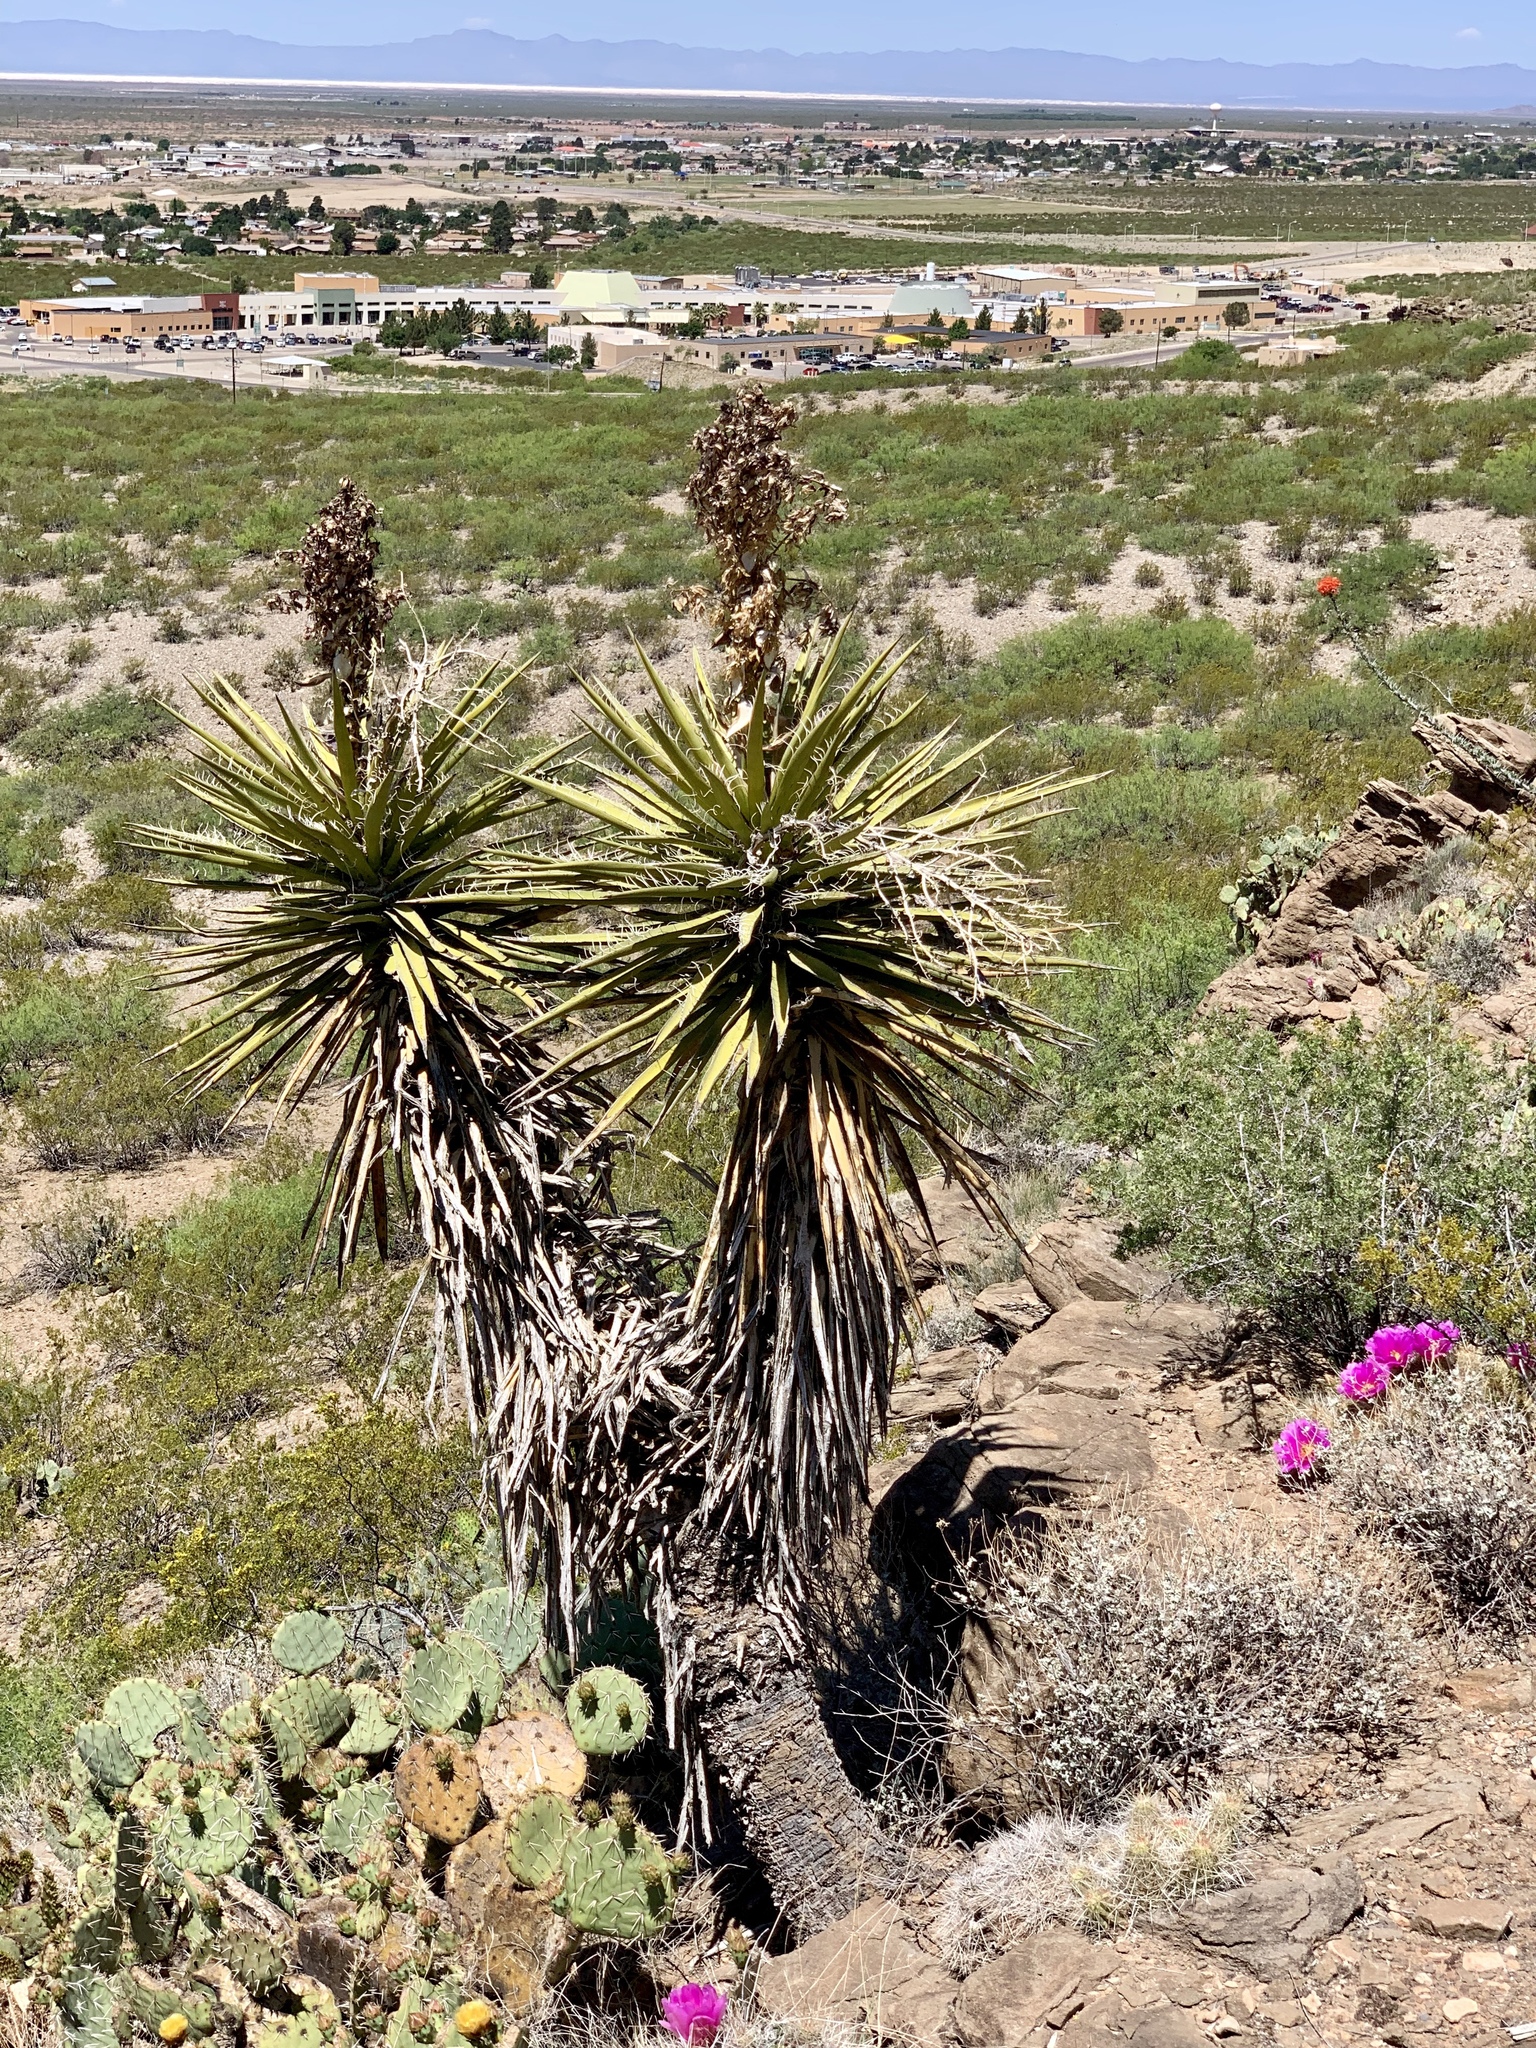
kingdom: Plantae
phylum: Tracheophyta
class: Liliopsida
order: Asparagales
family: Asparagaceae
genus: Yucca
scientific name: Yucca treculiana
